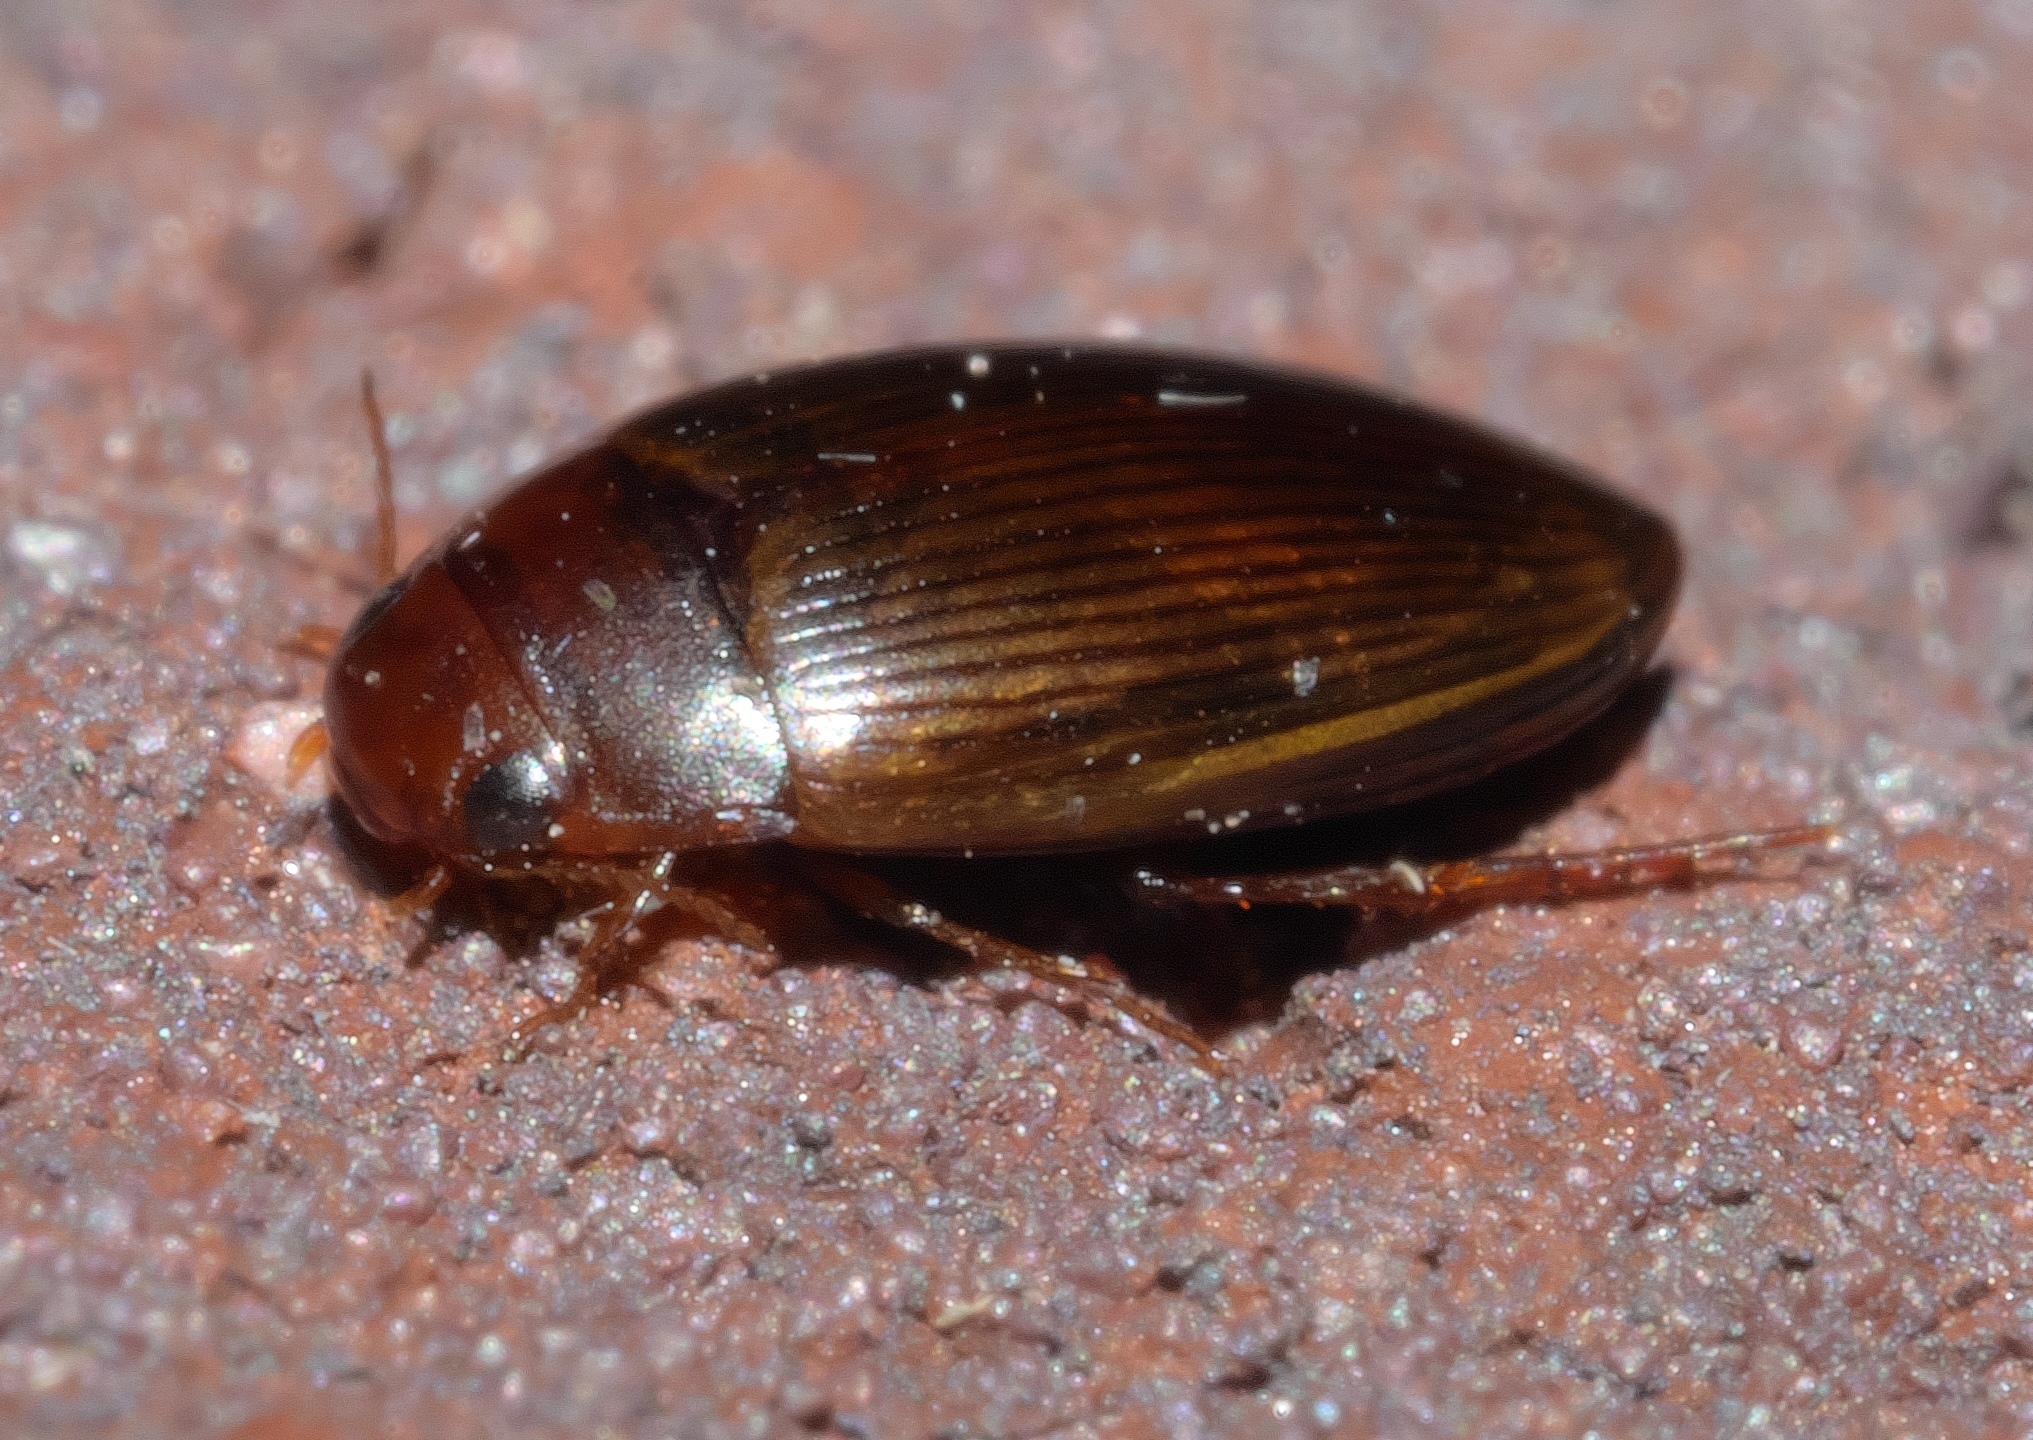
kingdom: Animalia
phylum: Arthropoda
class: Insecta
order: Coleoptera
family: Dytiscidae
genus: Copelatus
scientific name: Copelatus glyphicus
